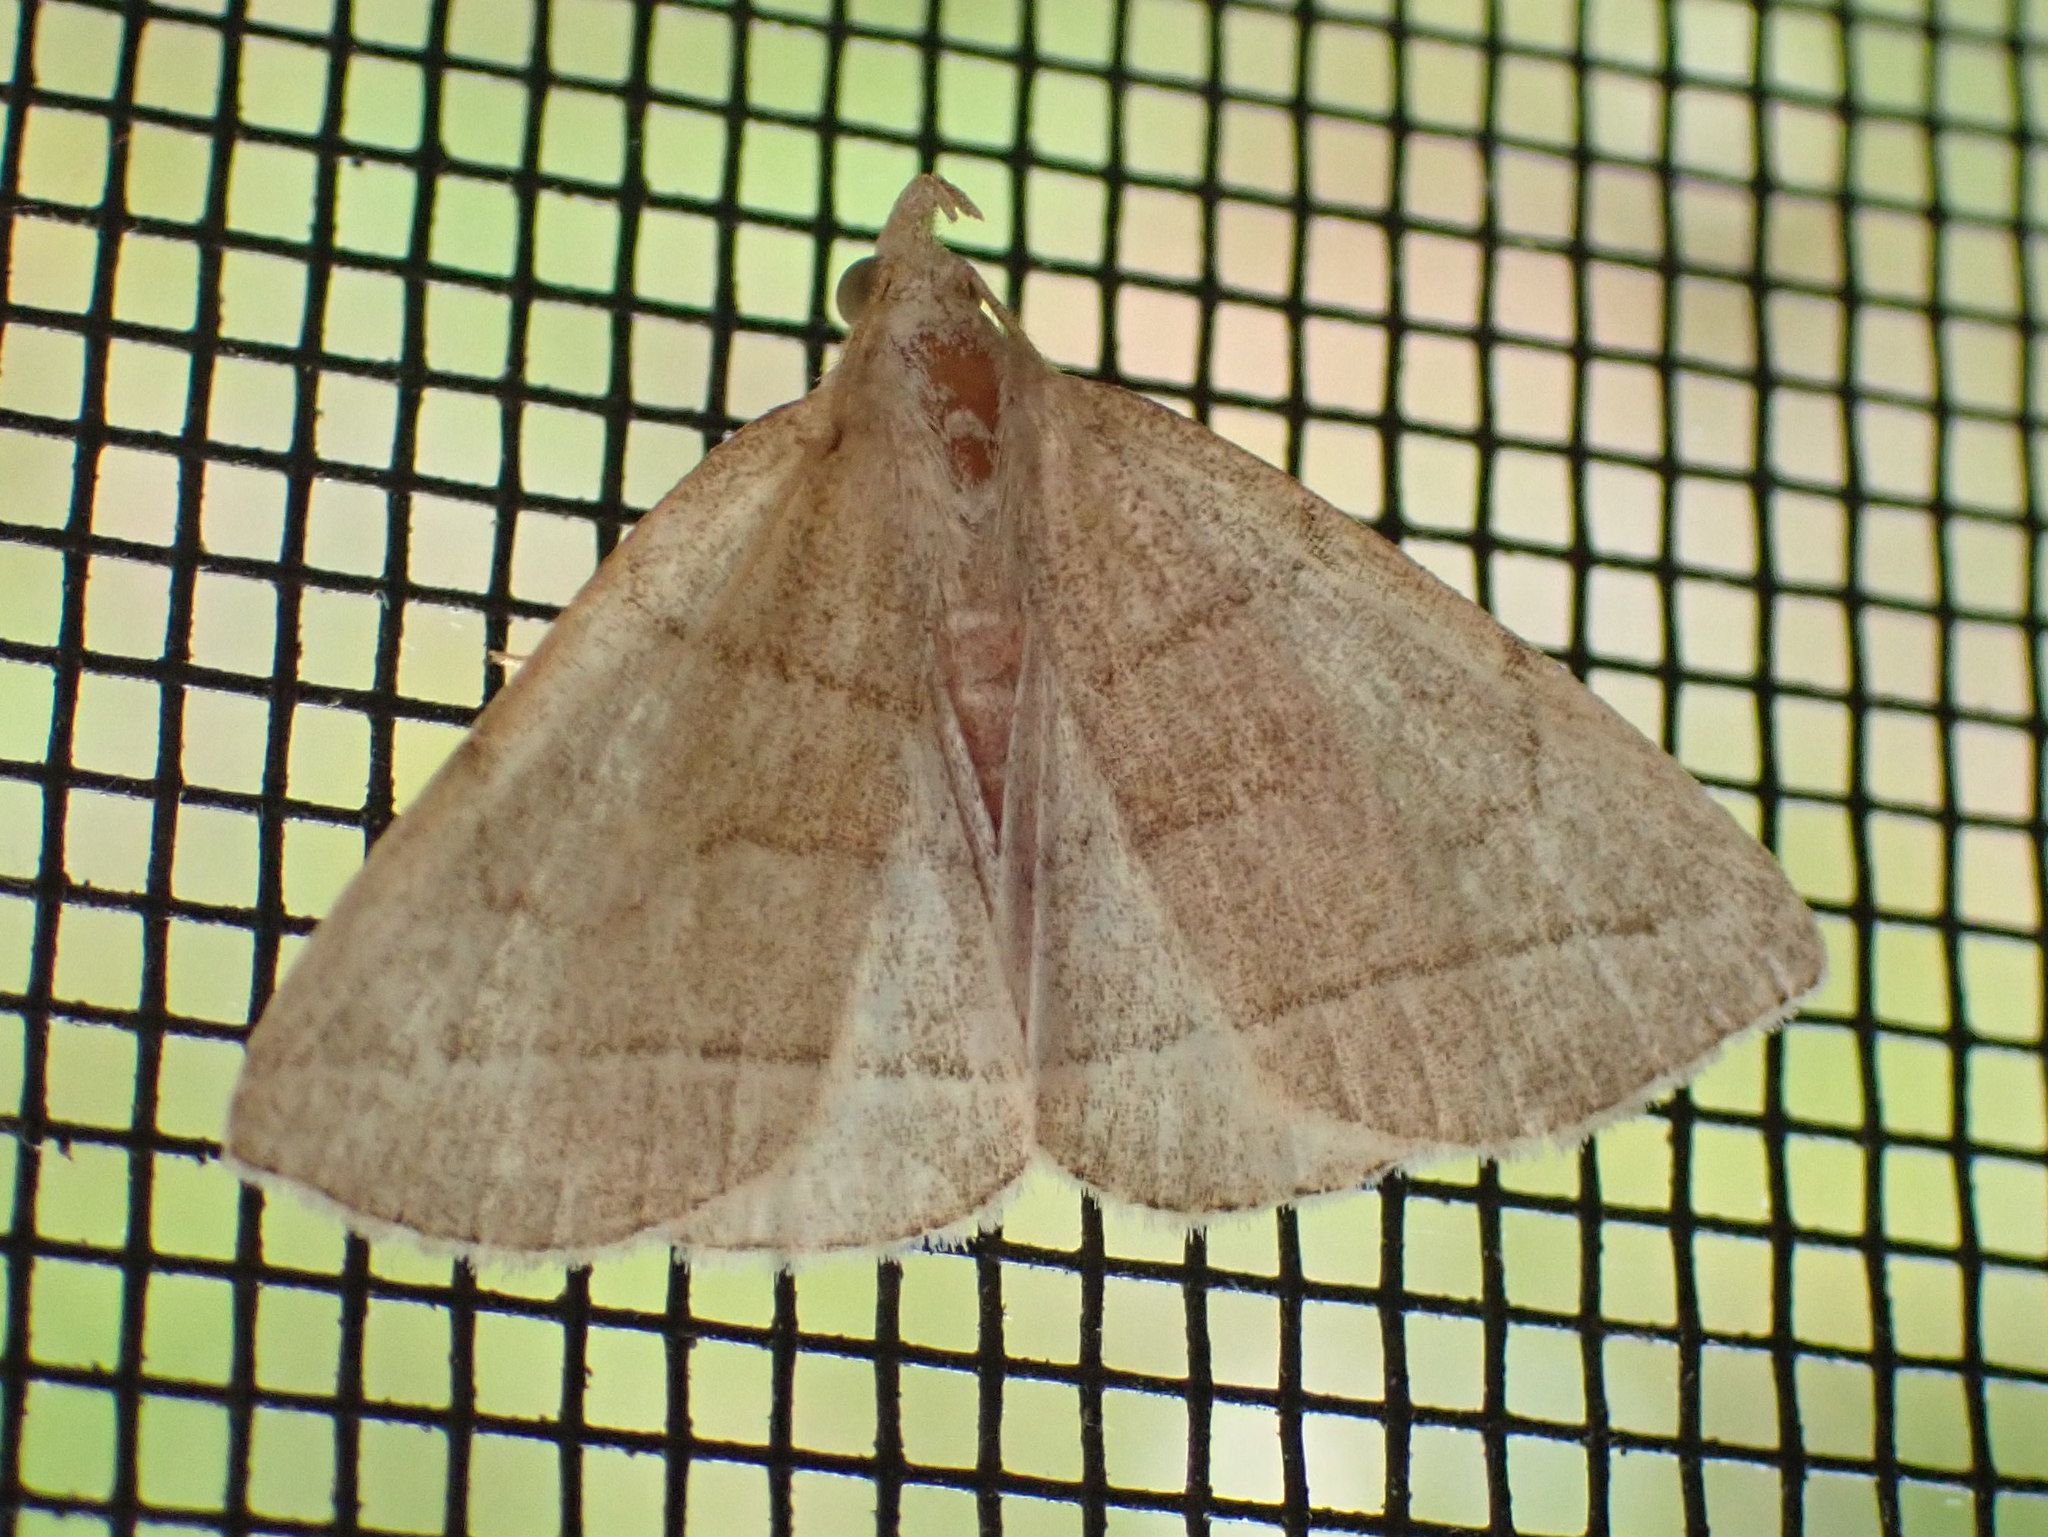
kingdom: Animalia
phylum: Arthropoda
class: Insecta
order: Lepidoptera
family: Erebidae
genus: Zanclognatha
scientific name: Zanclognatha cruralis
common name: Early fan-foot
